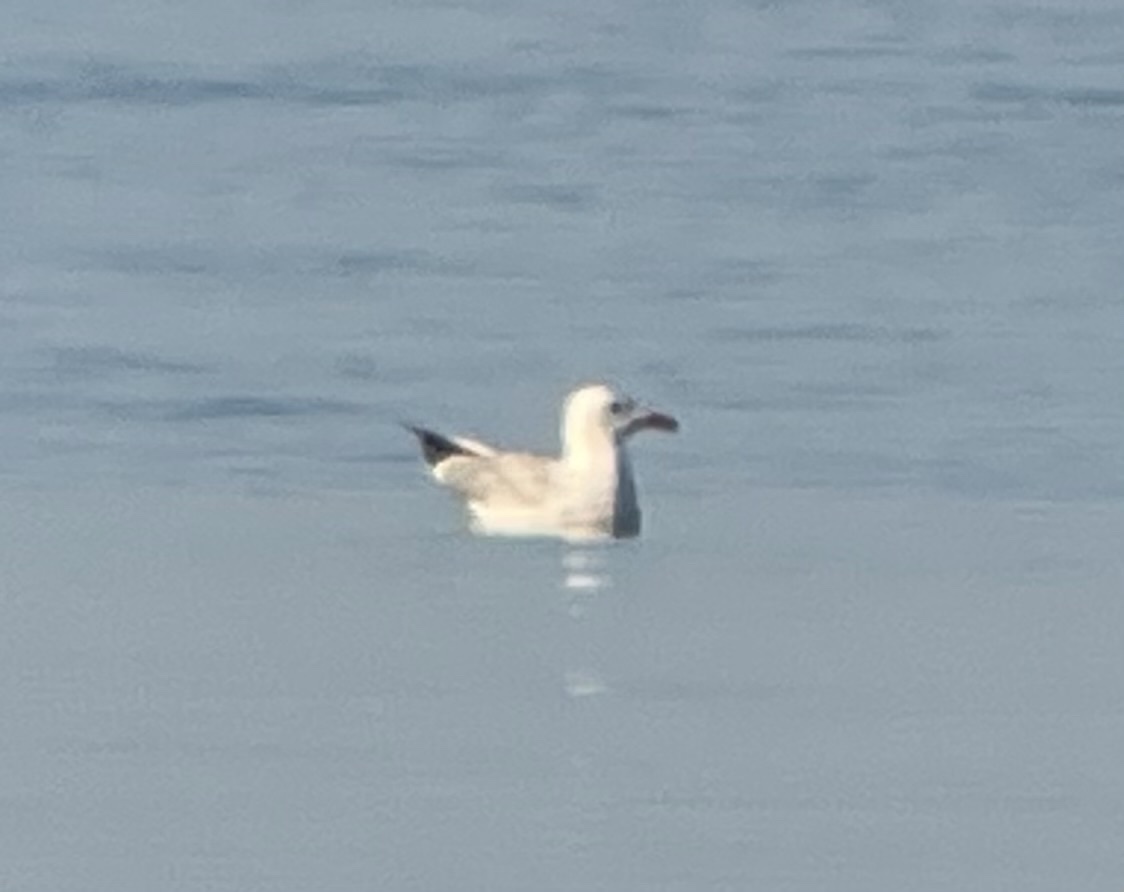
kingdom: Animalia
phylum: Chordata
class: Aves
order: Charadriiformes
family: Laridae
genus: Ichthyaetus
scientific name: Ichthyaetus audouinii
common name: Audouin's gull
